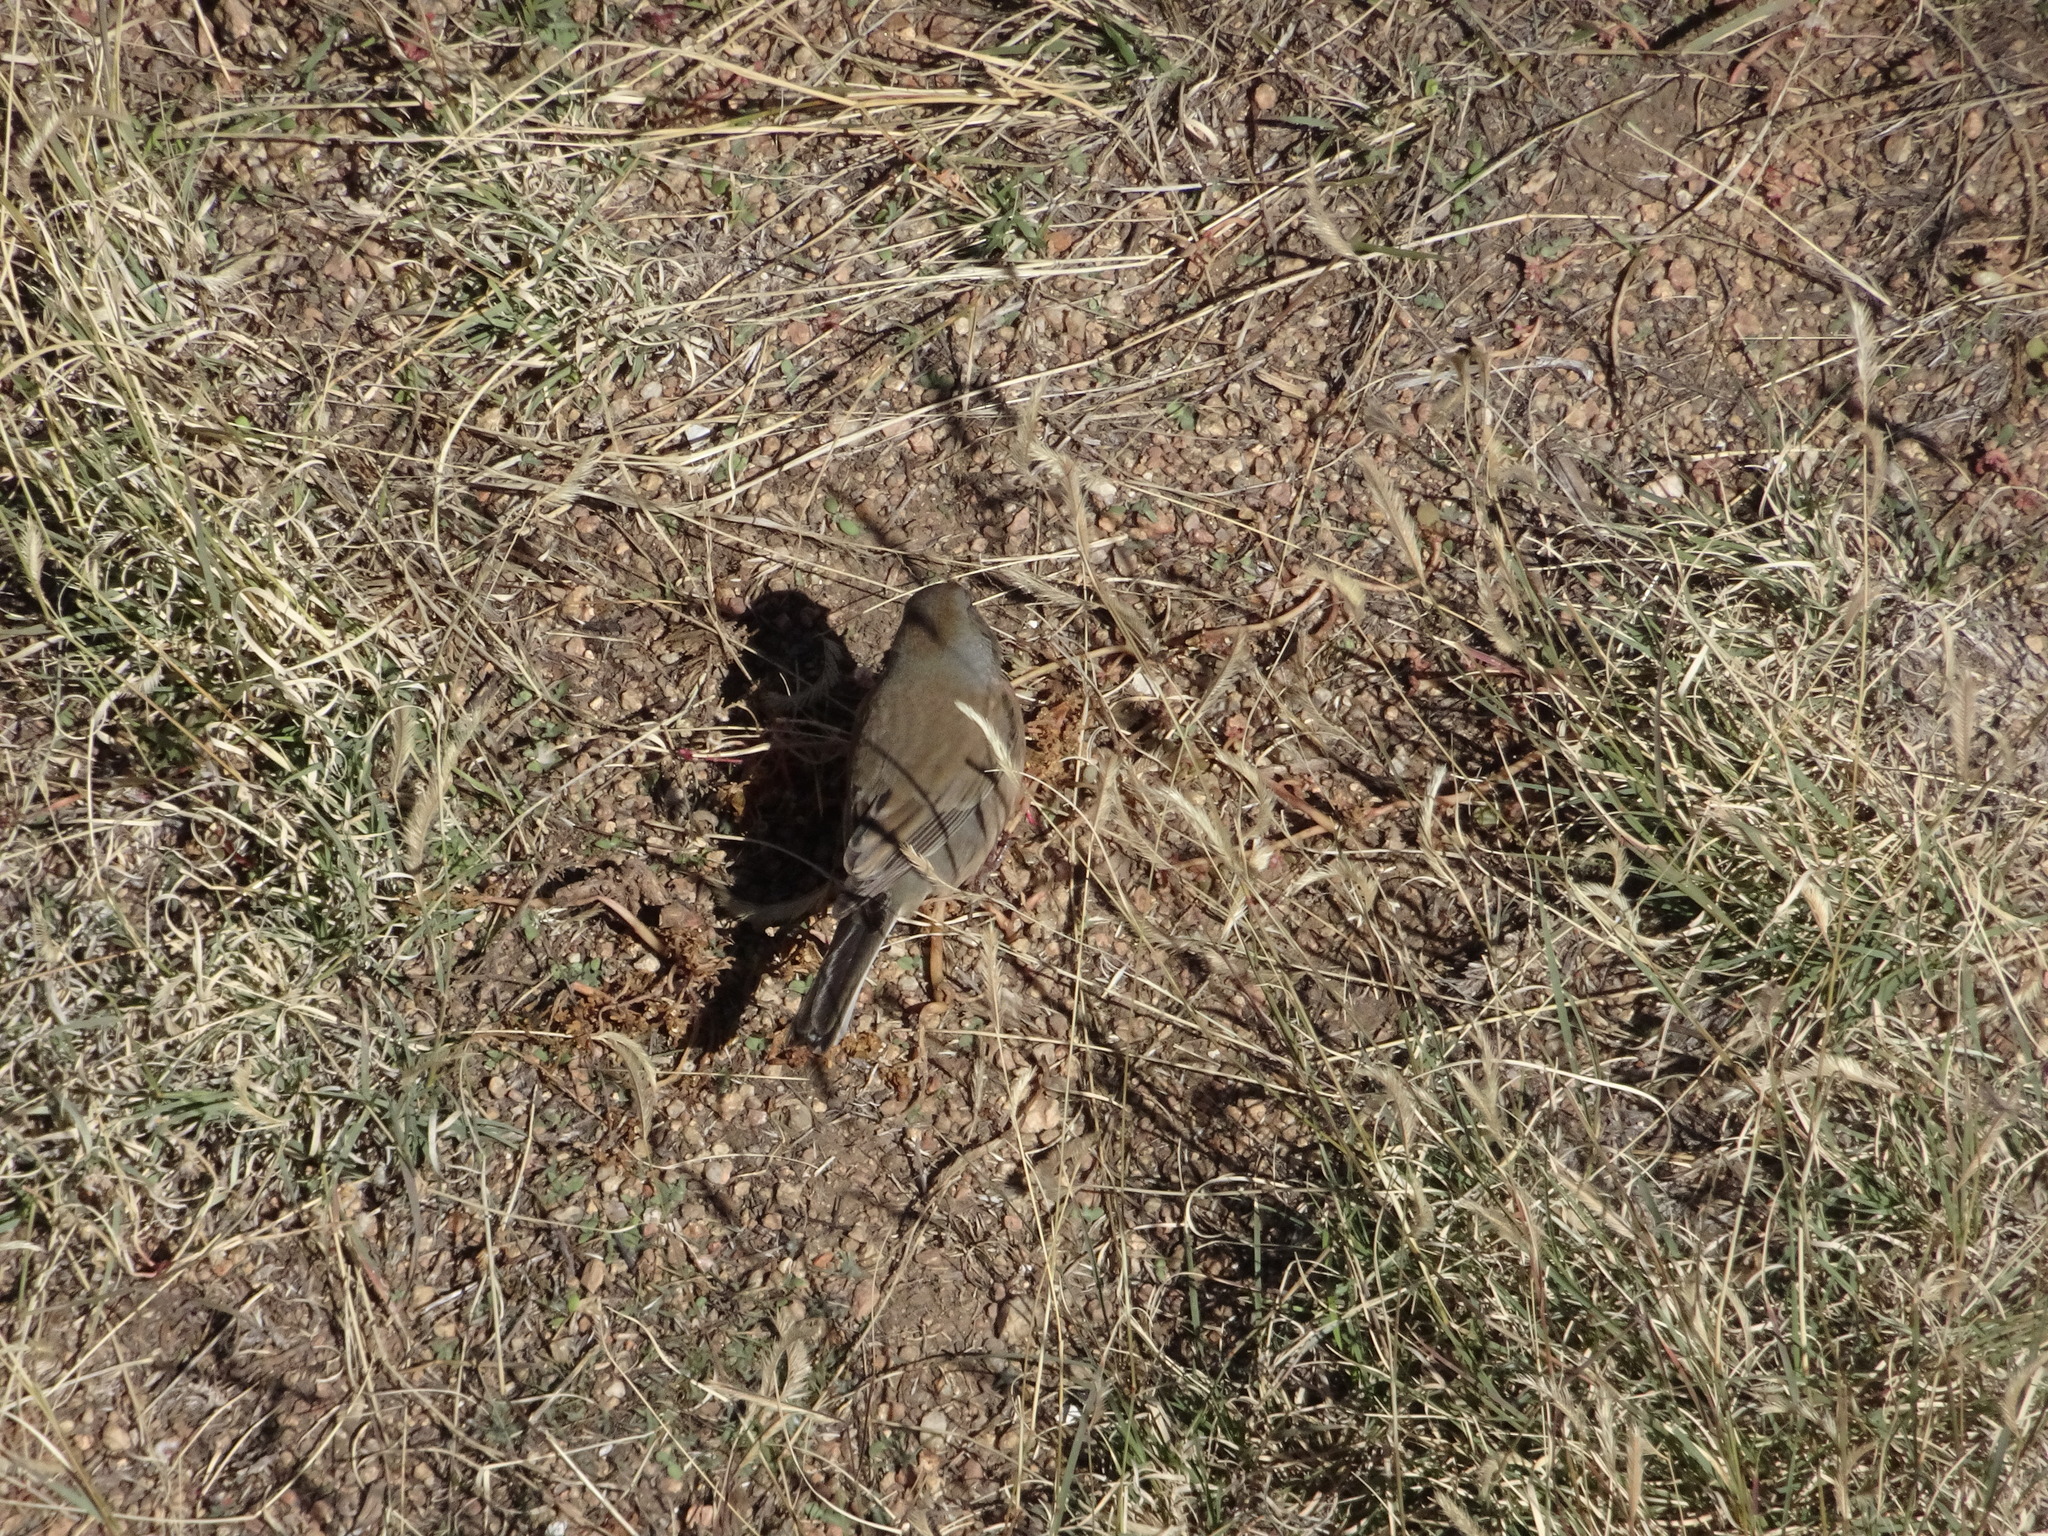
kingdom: Animalia
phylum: Chordata
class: Aves
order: Passeriformes
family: Passerellidae
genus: Junco
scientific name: Junco hyemalis
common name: Dark-eyed junco
